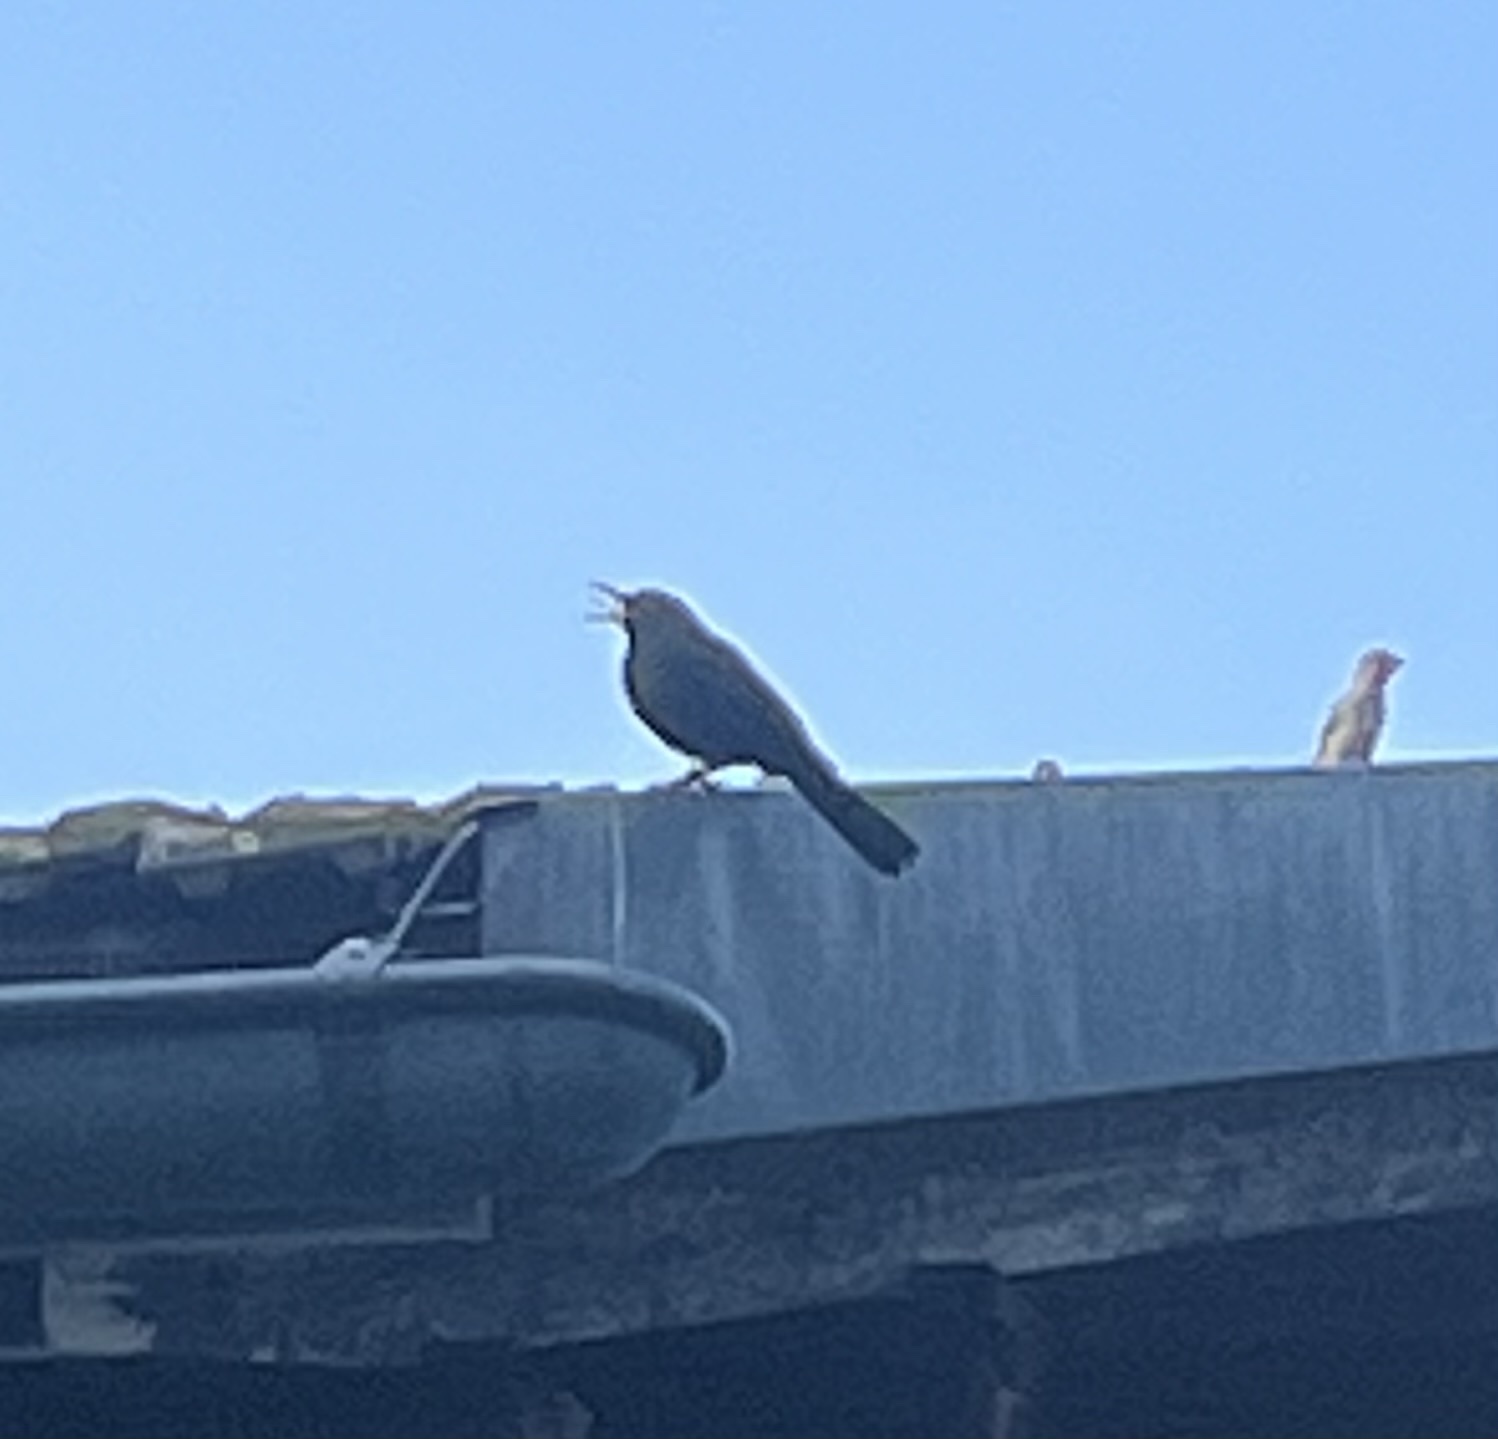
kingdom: Animalia
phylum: Chordata
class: Aves
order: Passeriformes
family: Turdidae
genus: Turdus
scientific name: Turdus merula
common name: Common blackbird
